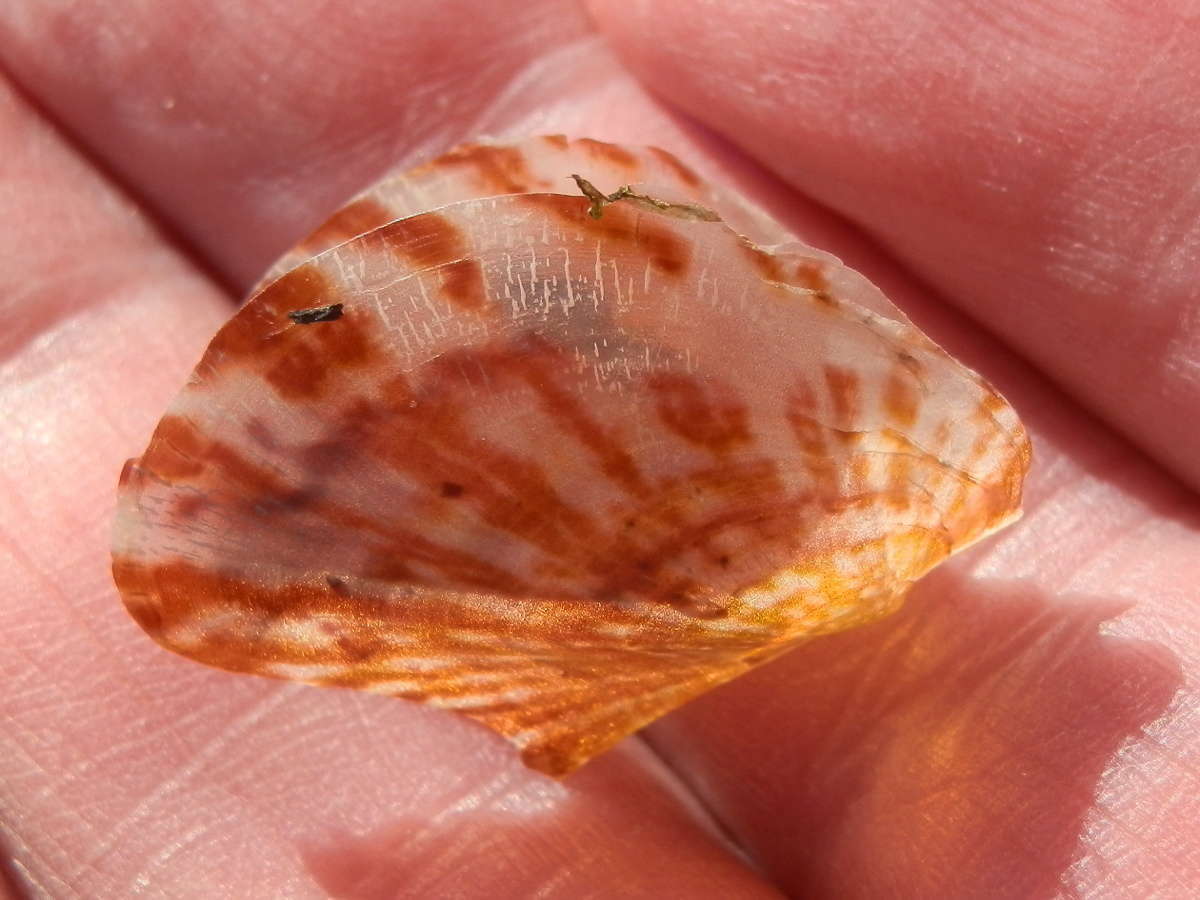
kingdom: Animalia
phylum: Mollusca
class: Bivalvia
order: Ostreida
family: Vulsellidae
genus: Electroma
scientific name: Electroma papilionacea
